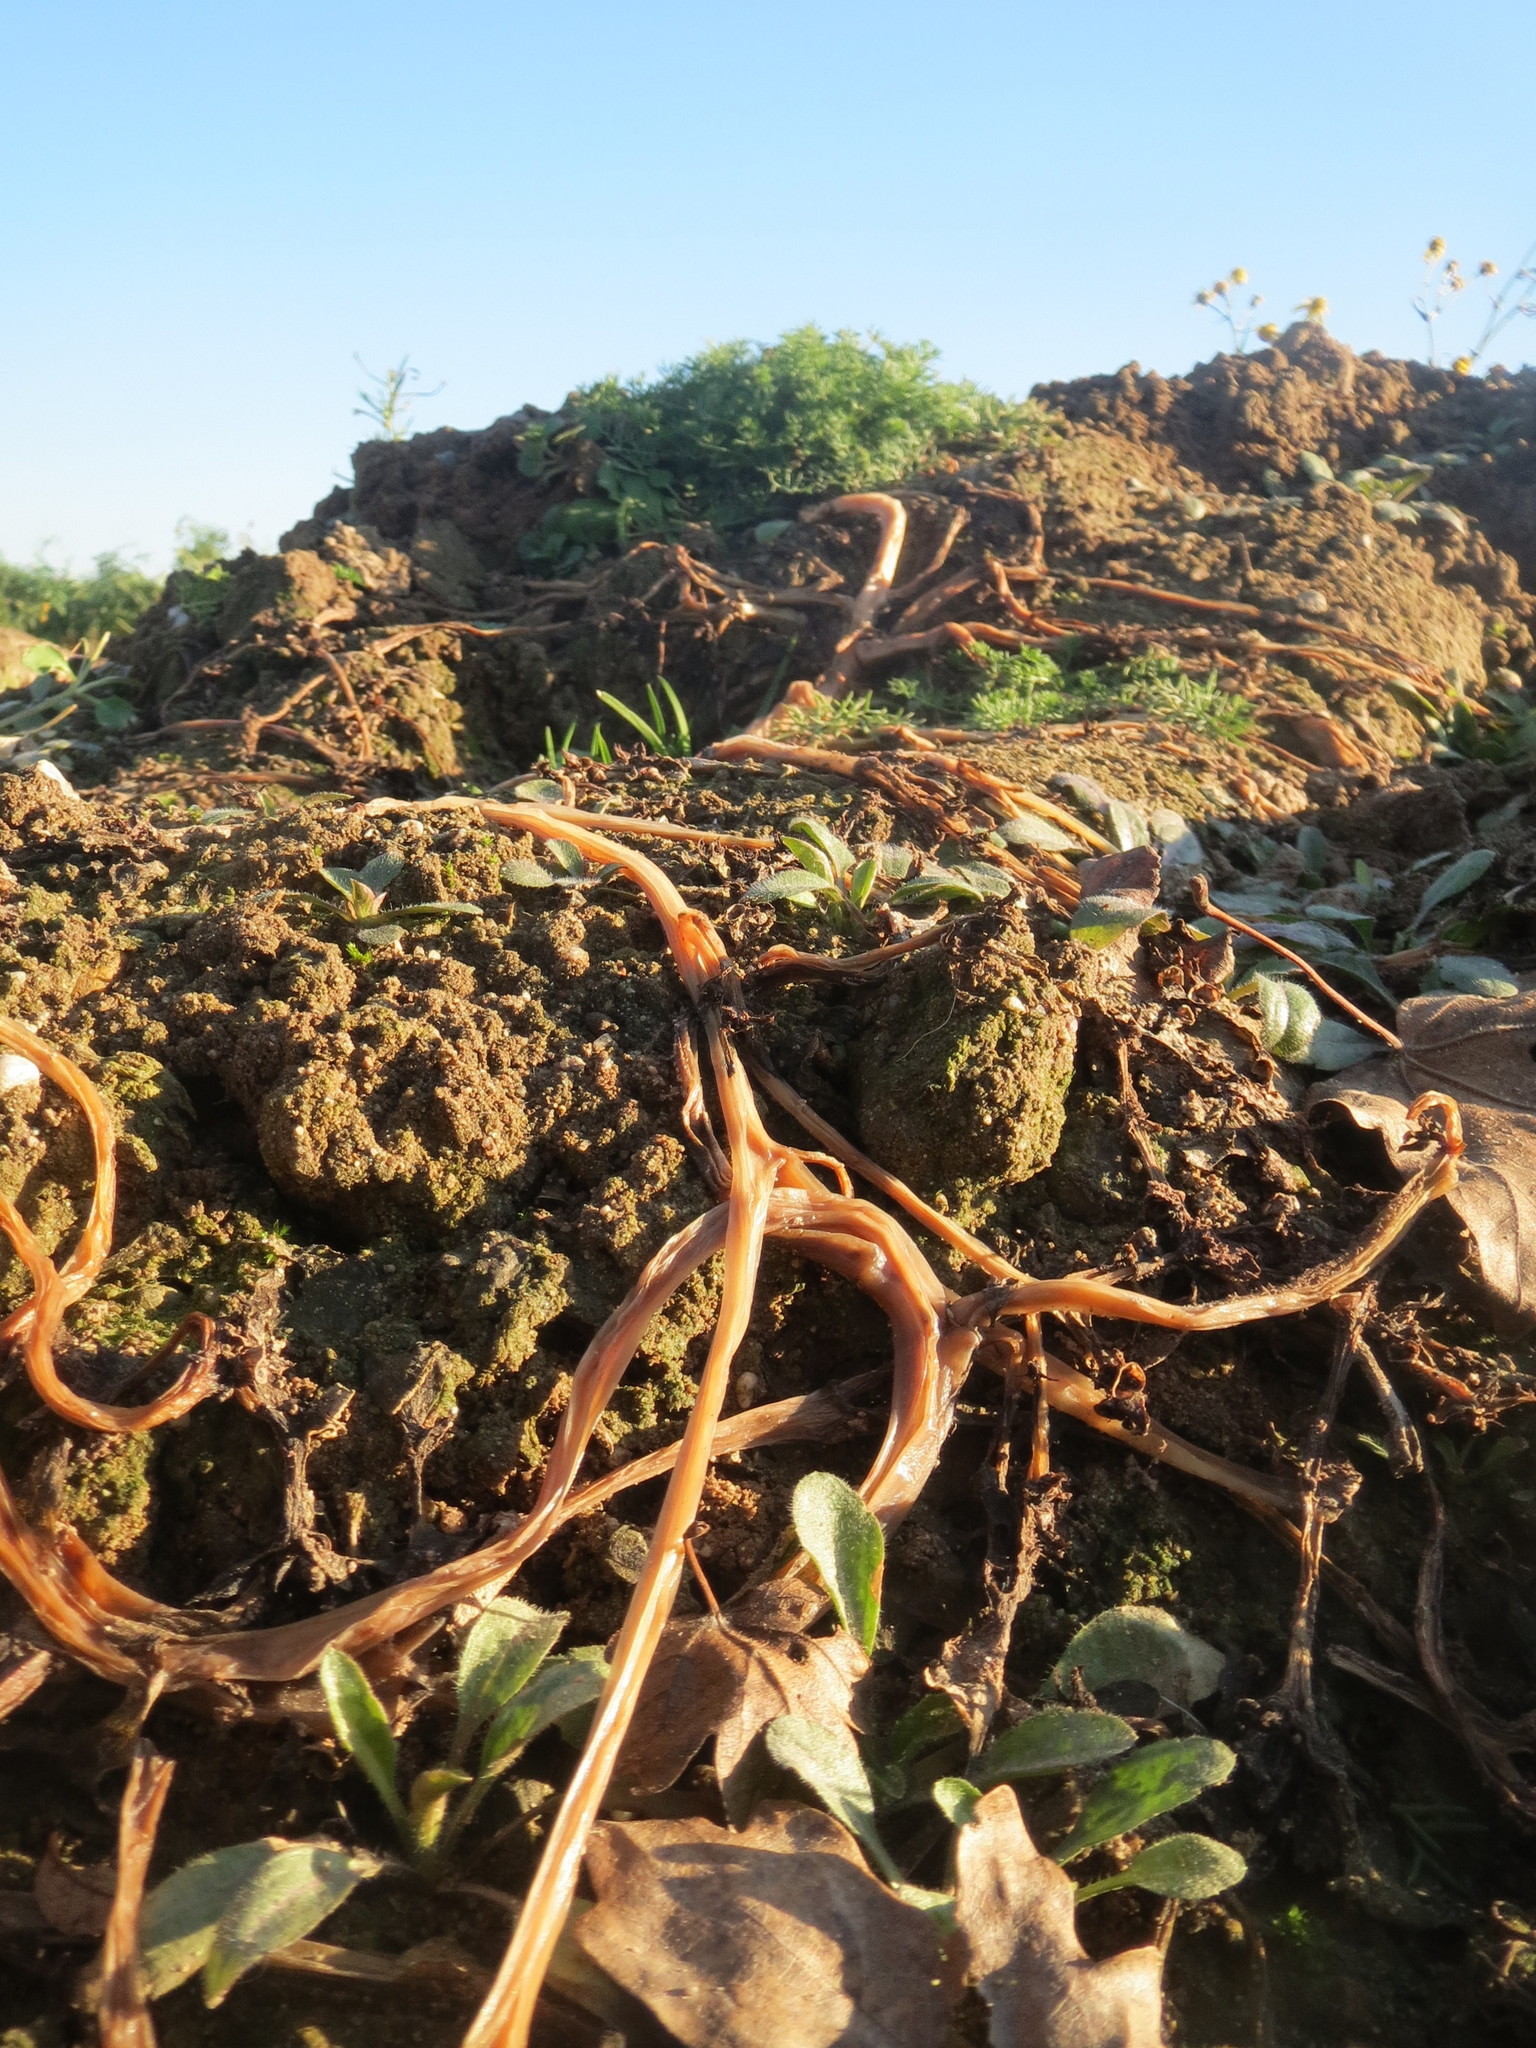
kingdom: Plantae
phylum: Tracheophyta
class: Magnoliopsida
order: Caryophyllales
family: Portulacaceae
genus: Portulaca
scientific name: Portulaca oleracea
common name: Common purslane
